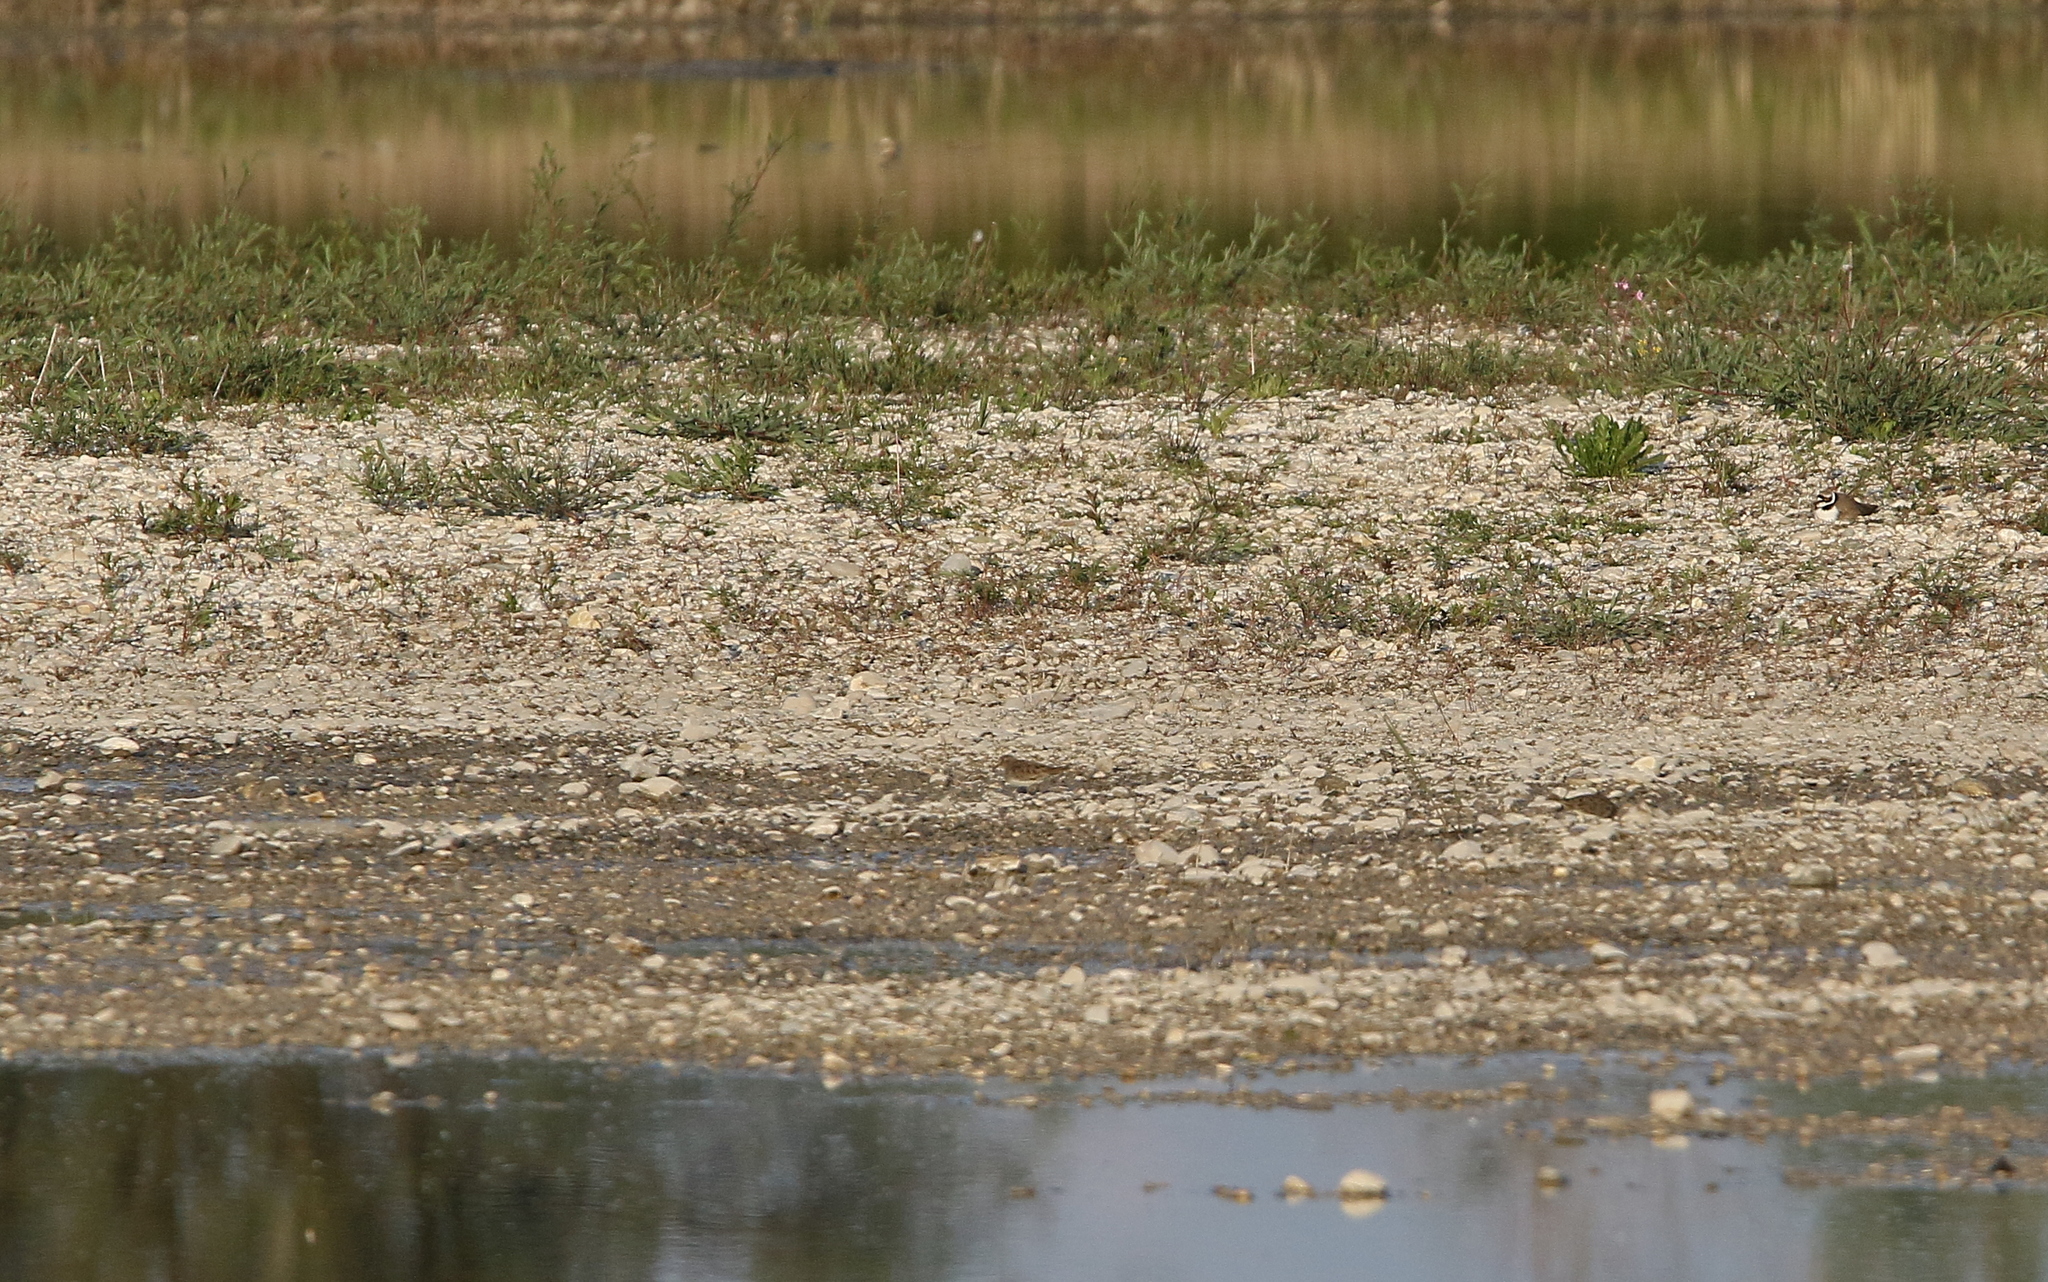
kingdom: Animalia
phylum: Chordata
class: Aves
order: Charadriiformes
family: Scolopacidae
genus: Calidris
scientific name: Calidris temminckii
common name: Temminck's stint
